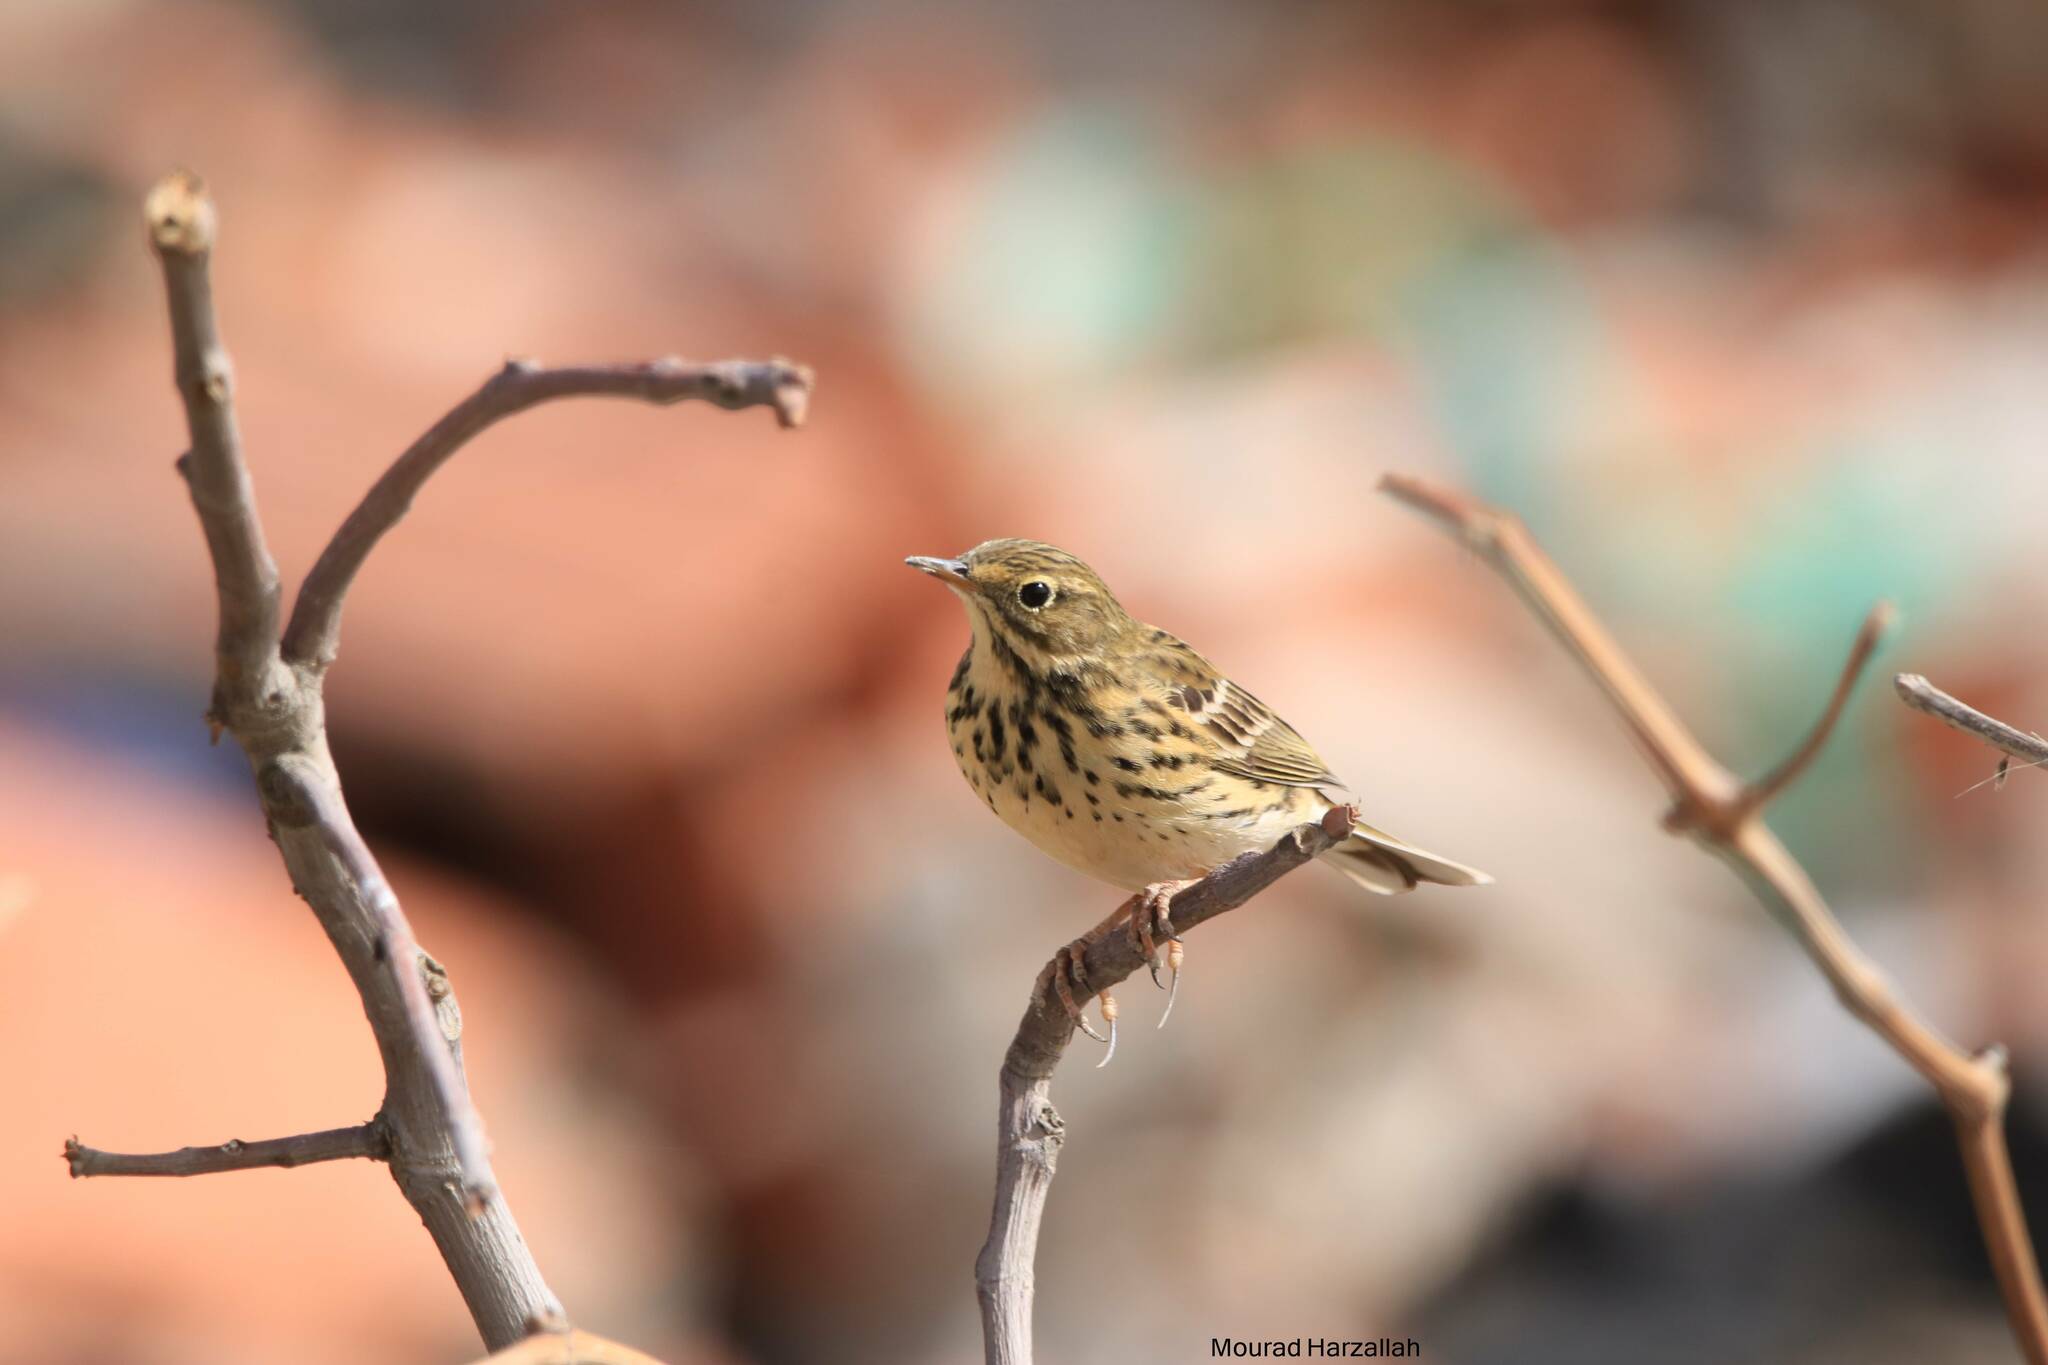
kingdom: Animalia
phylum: Chordata
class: Aves
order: Passeriformes
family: Motacillidae
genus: Anthus
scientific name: Anthus pratensis
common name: Meadow pipit
